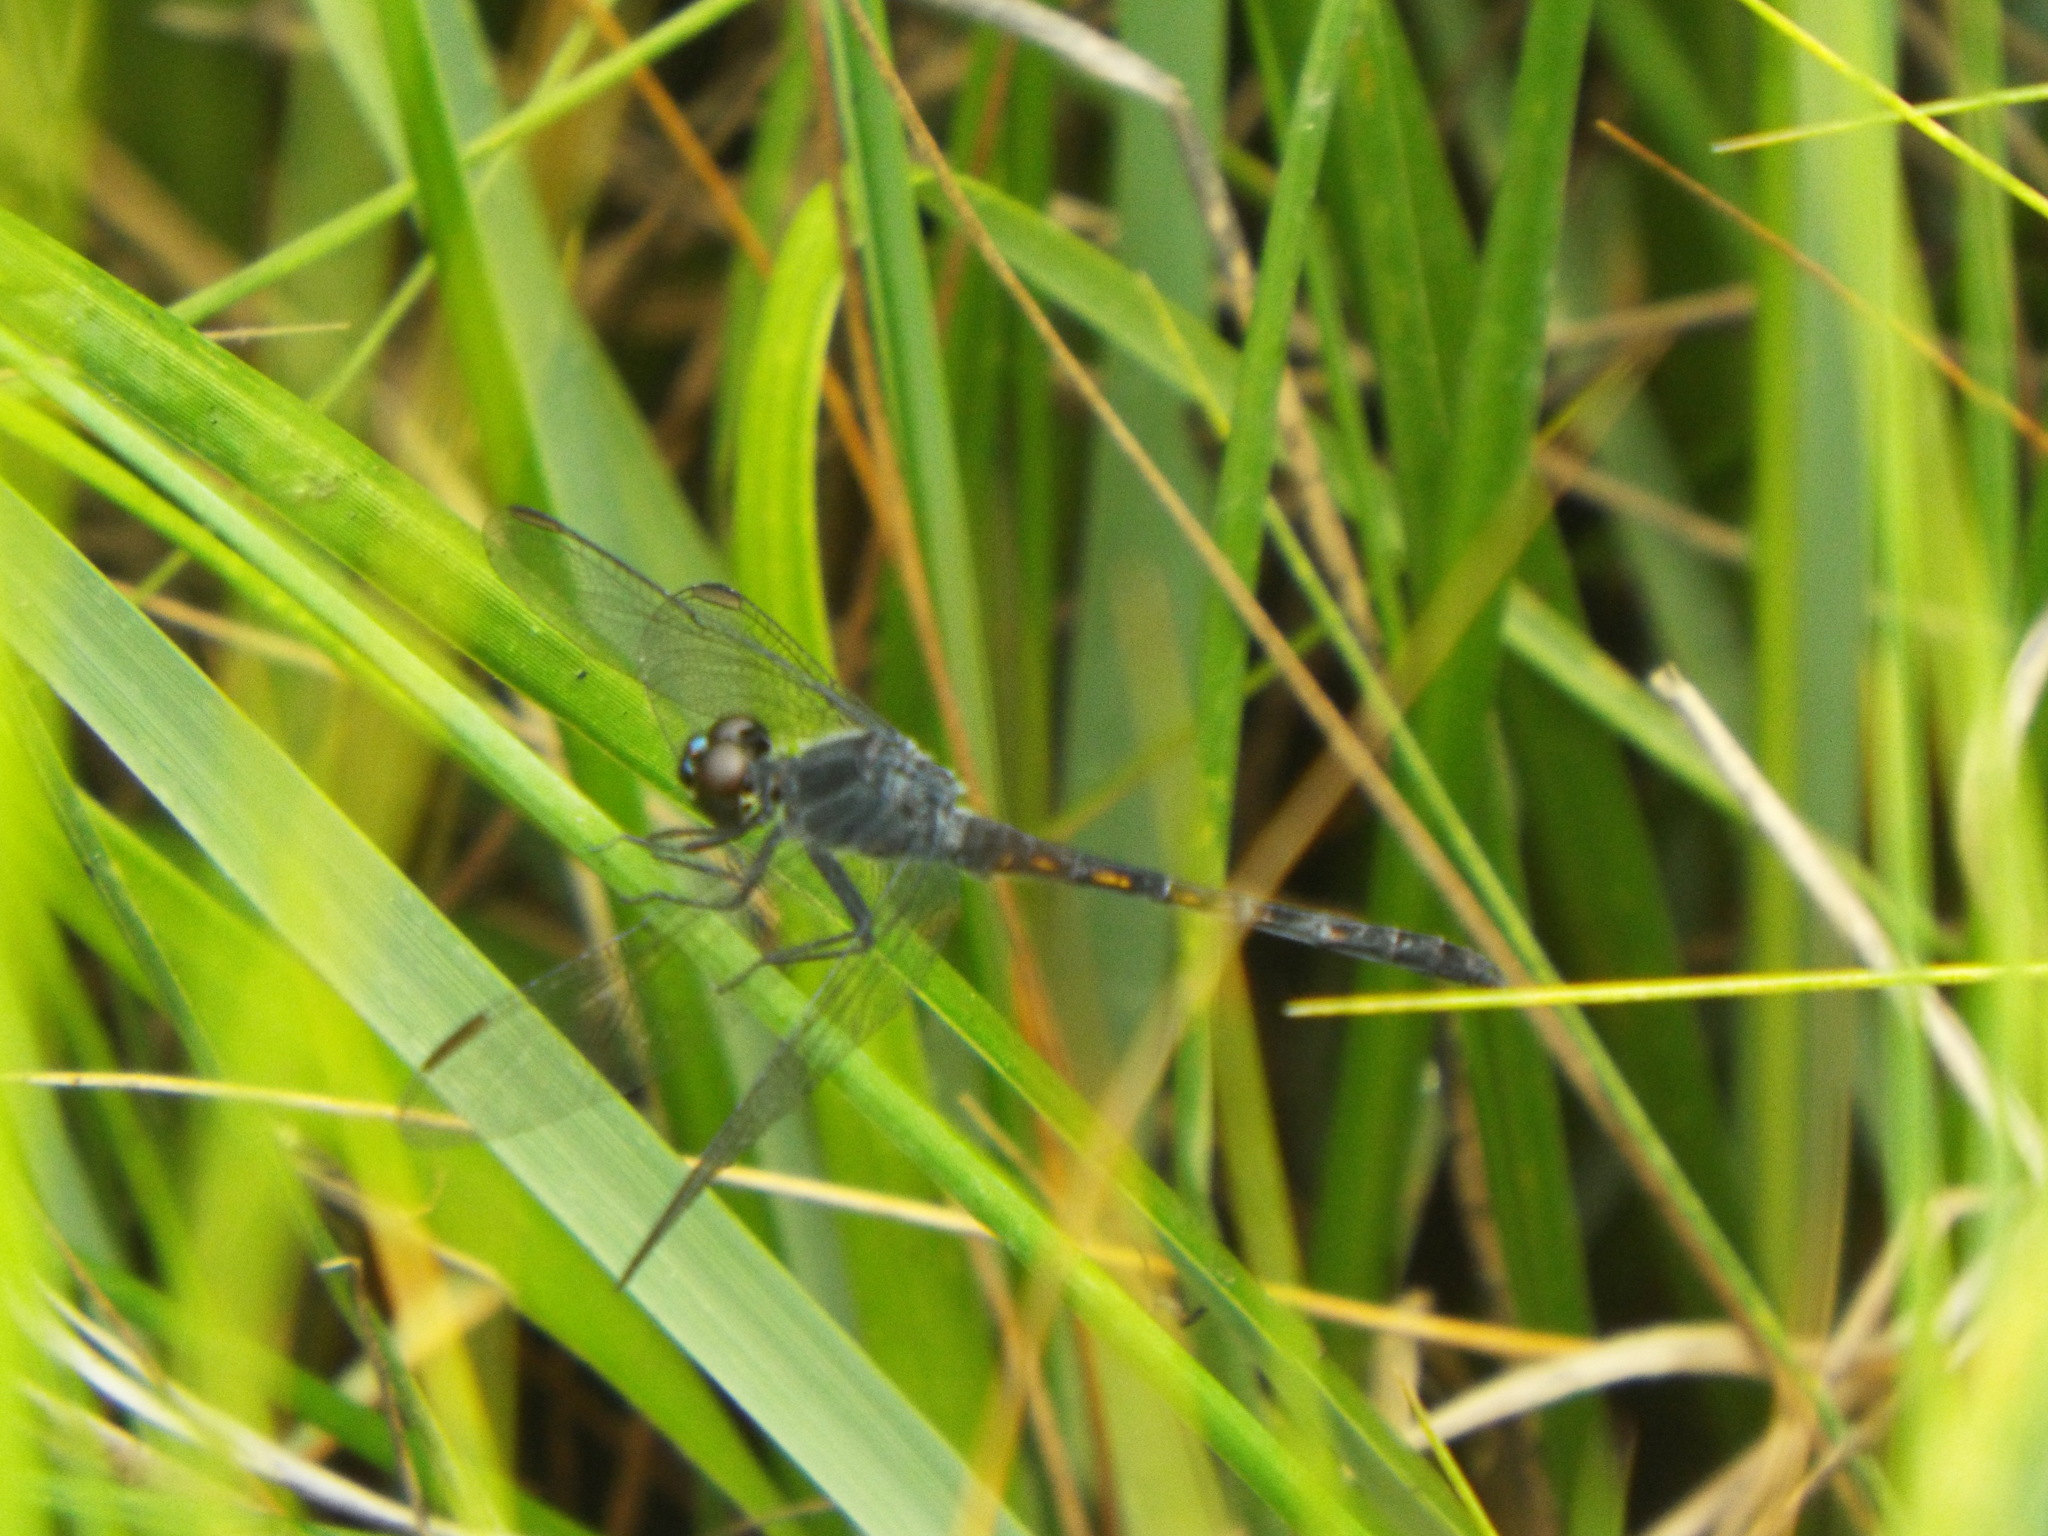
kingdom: Animalia
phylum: Arthropoda
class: Insecta
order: Odonata
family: Libellulidae
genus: Erythrodiplax
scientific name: Erythrodiplax berenice
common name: Seaside dragonlet
